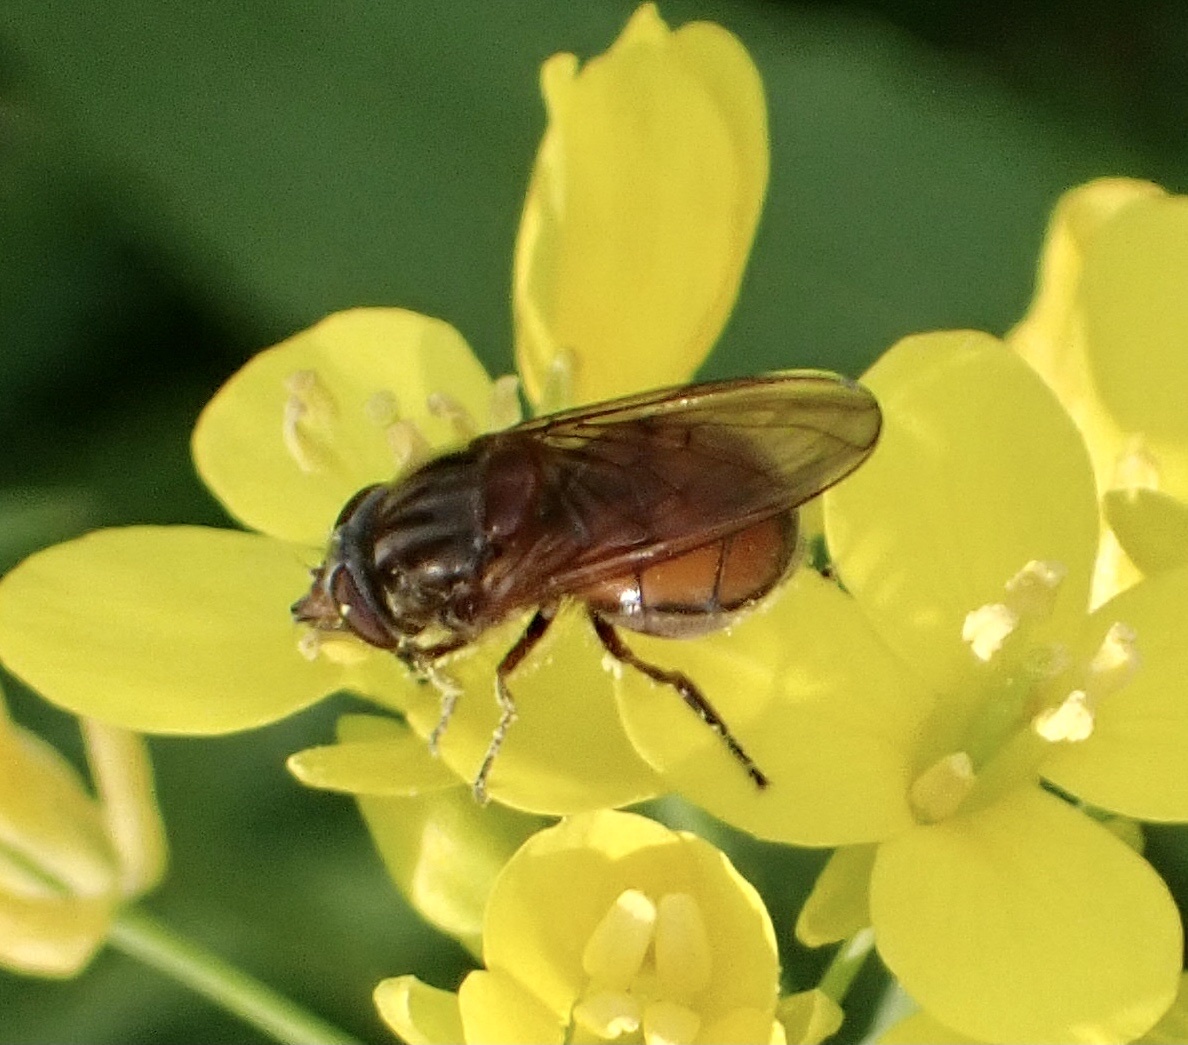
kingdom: Animalia
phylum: Arthropoda
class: Insecta
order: Diptera
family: Syrphidae
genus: Rhingia
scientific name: Rhingia campestris
